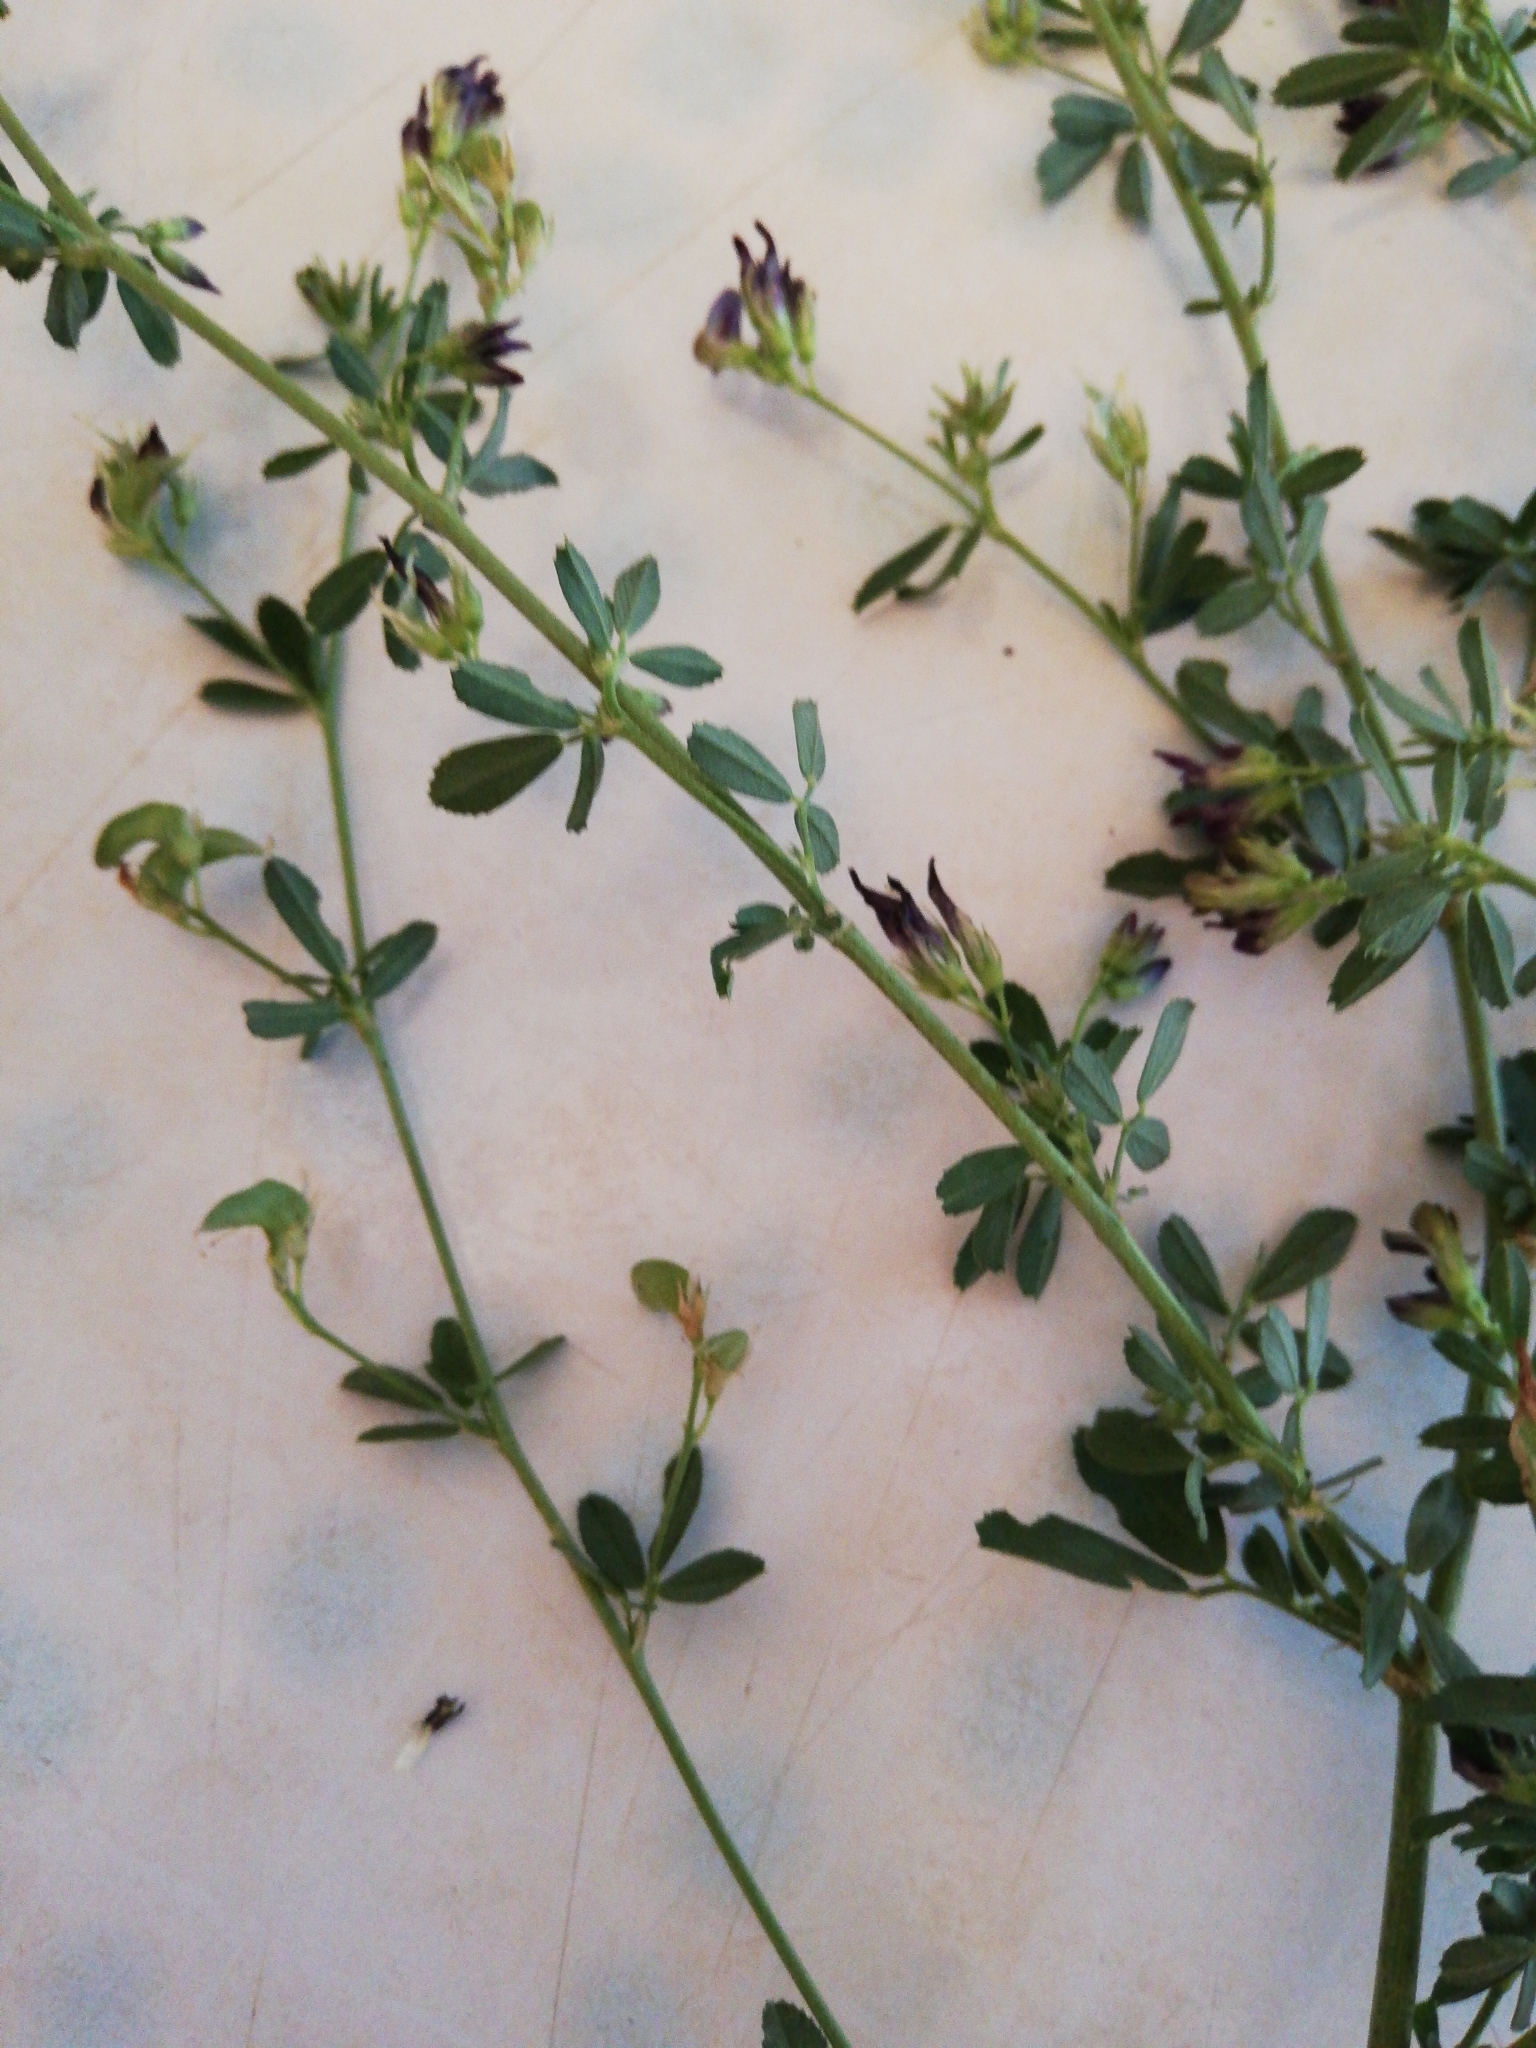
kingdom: Plantae
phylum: Tracheophyta
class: Magnoliopsida
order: Fabales
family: Fabaceae
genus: Medicago
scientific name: Medicago varia
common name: Sand lucerne
